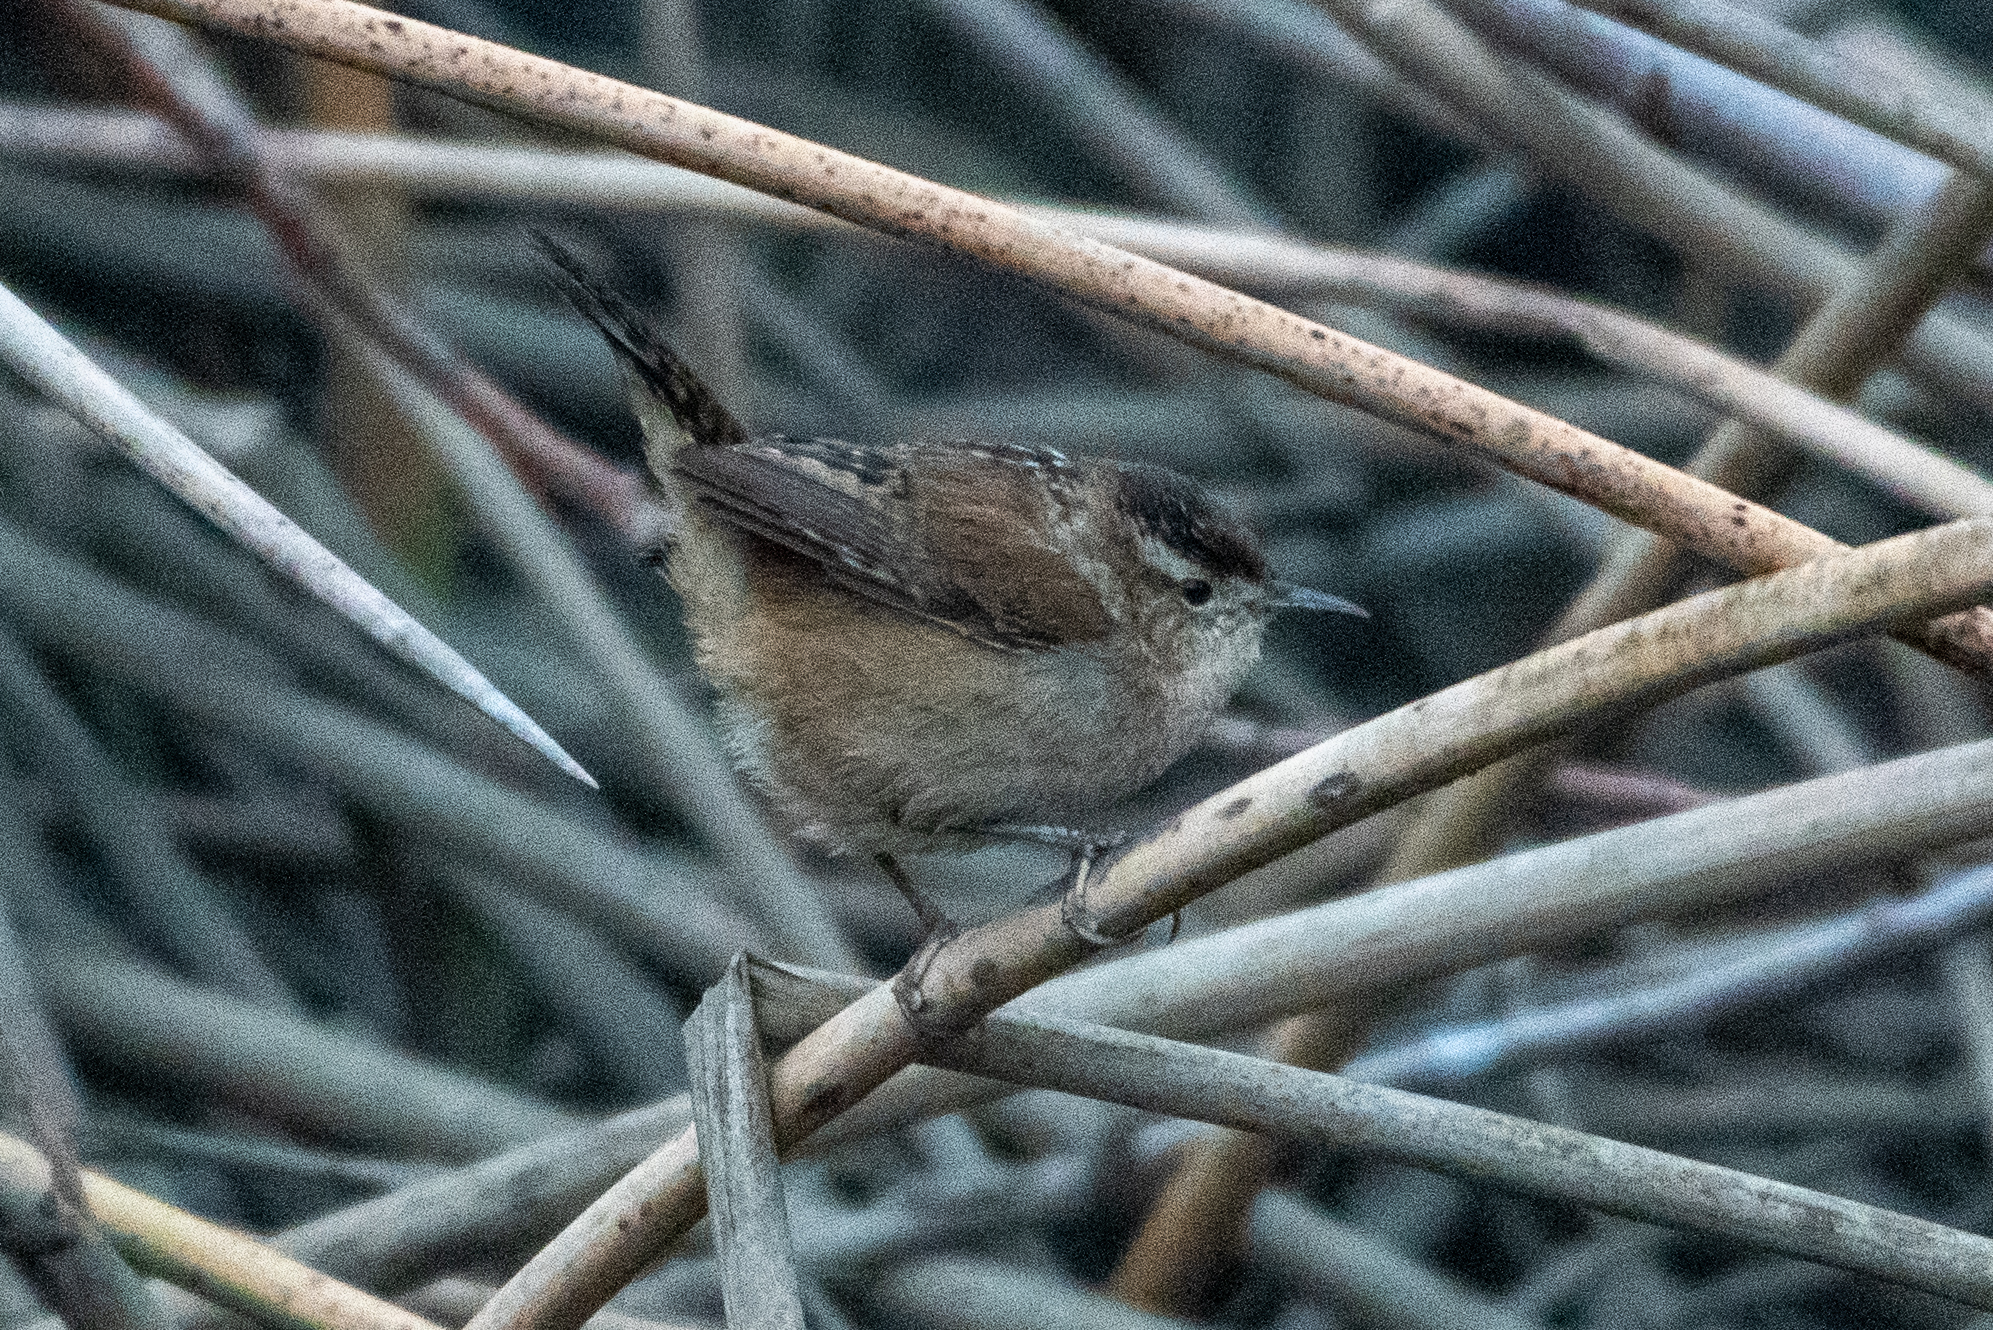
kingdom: Animalia
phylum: Chordata
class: Aves
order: Passeriformes
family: Troglodytidae
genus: Cistothorus
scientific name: Cistothorus palustris
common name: Marsh wren
